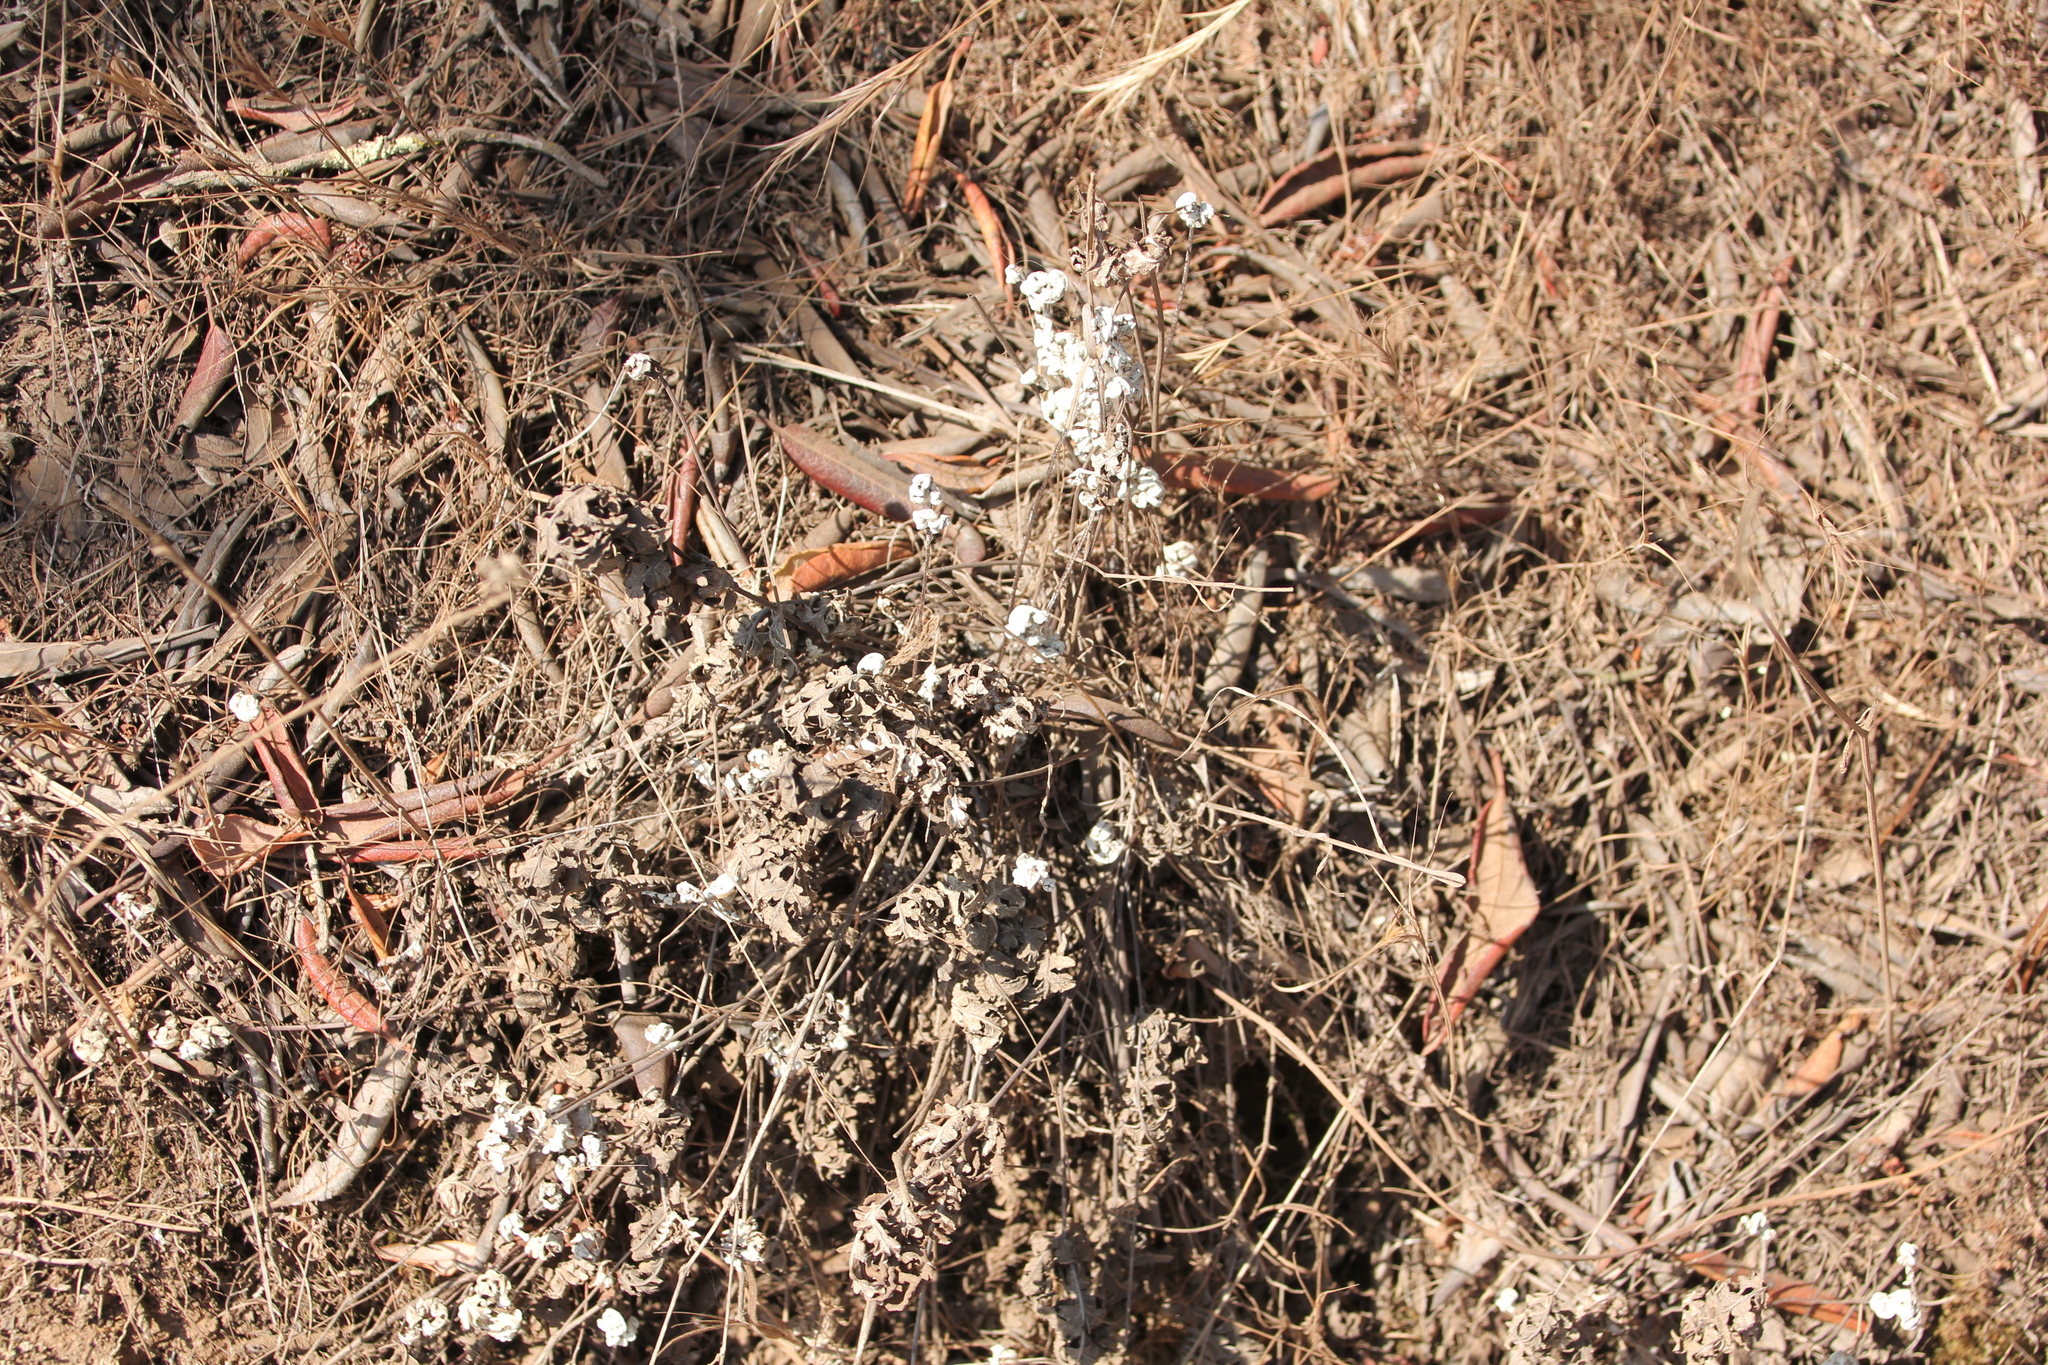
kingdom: Plantae
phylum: Tracheophyta
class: Polypodiopsida
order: Polypodiales
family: Pteridaceae
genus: Pentagramma
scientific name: Pentagramma glanduloviscida
